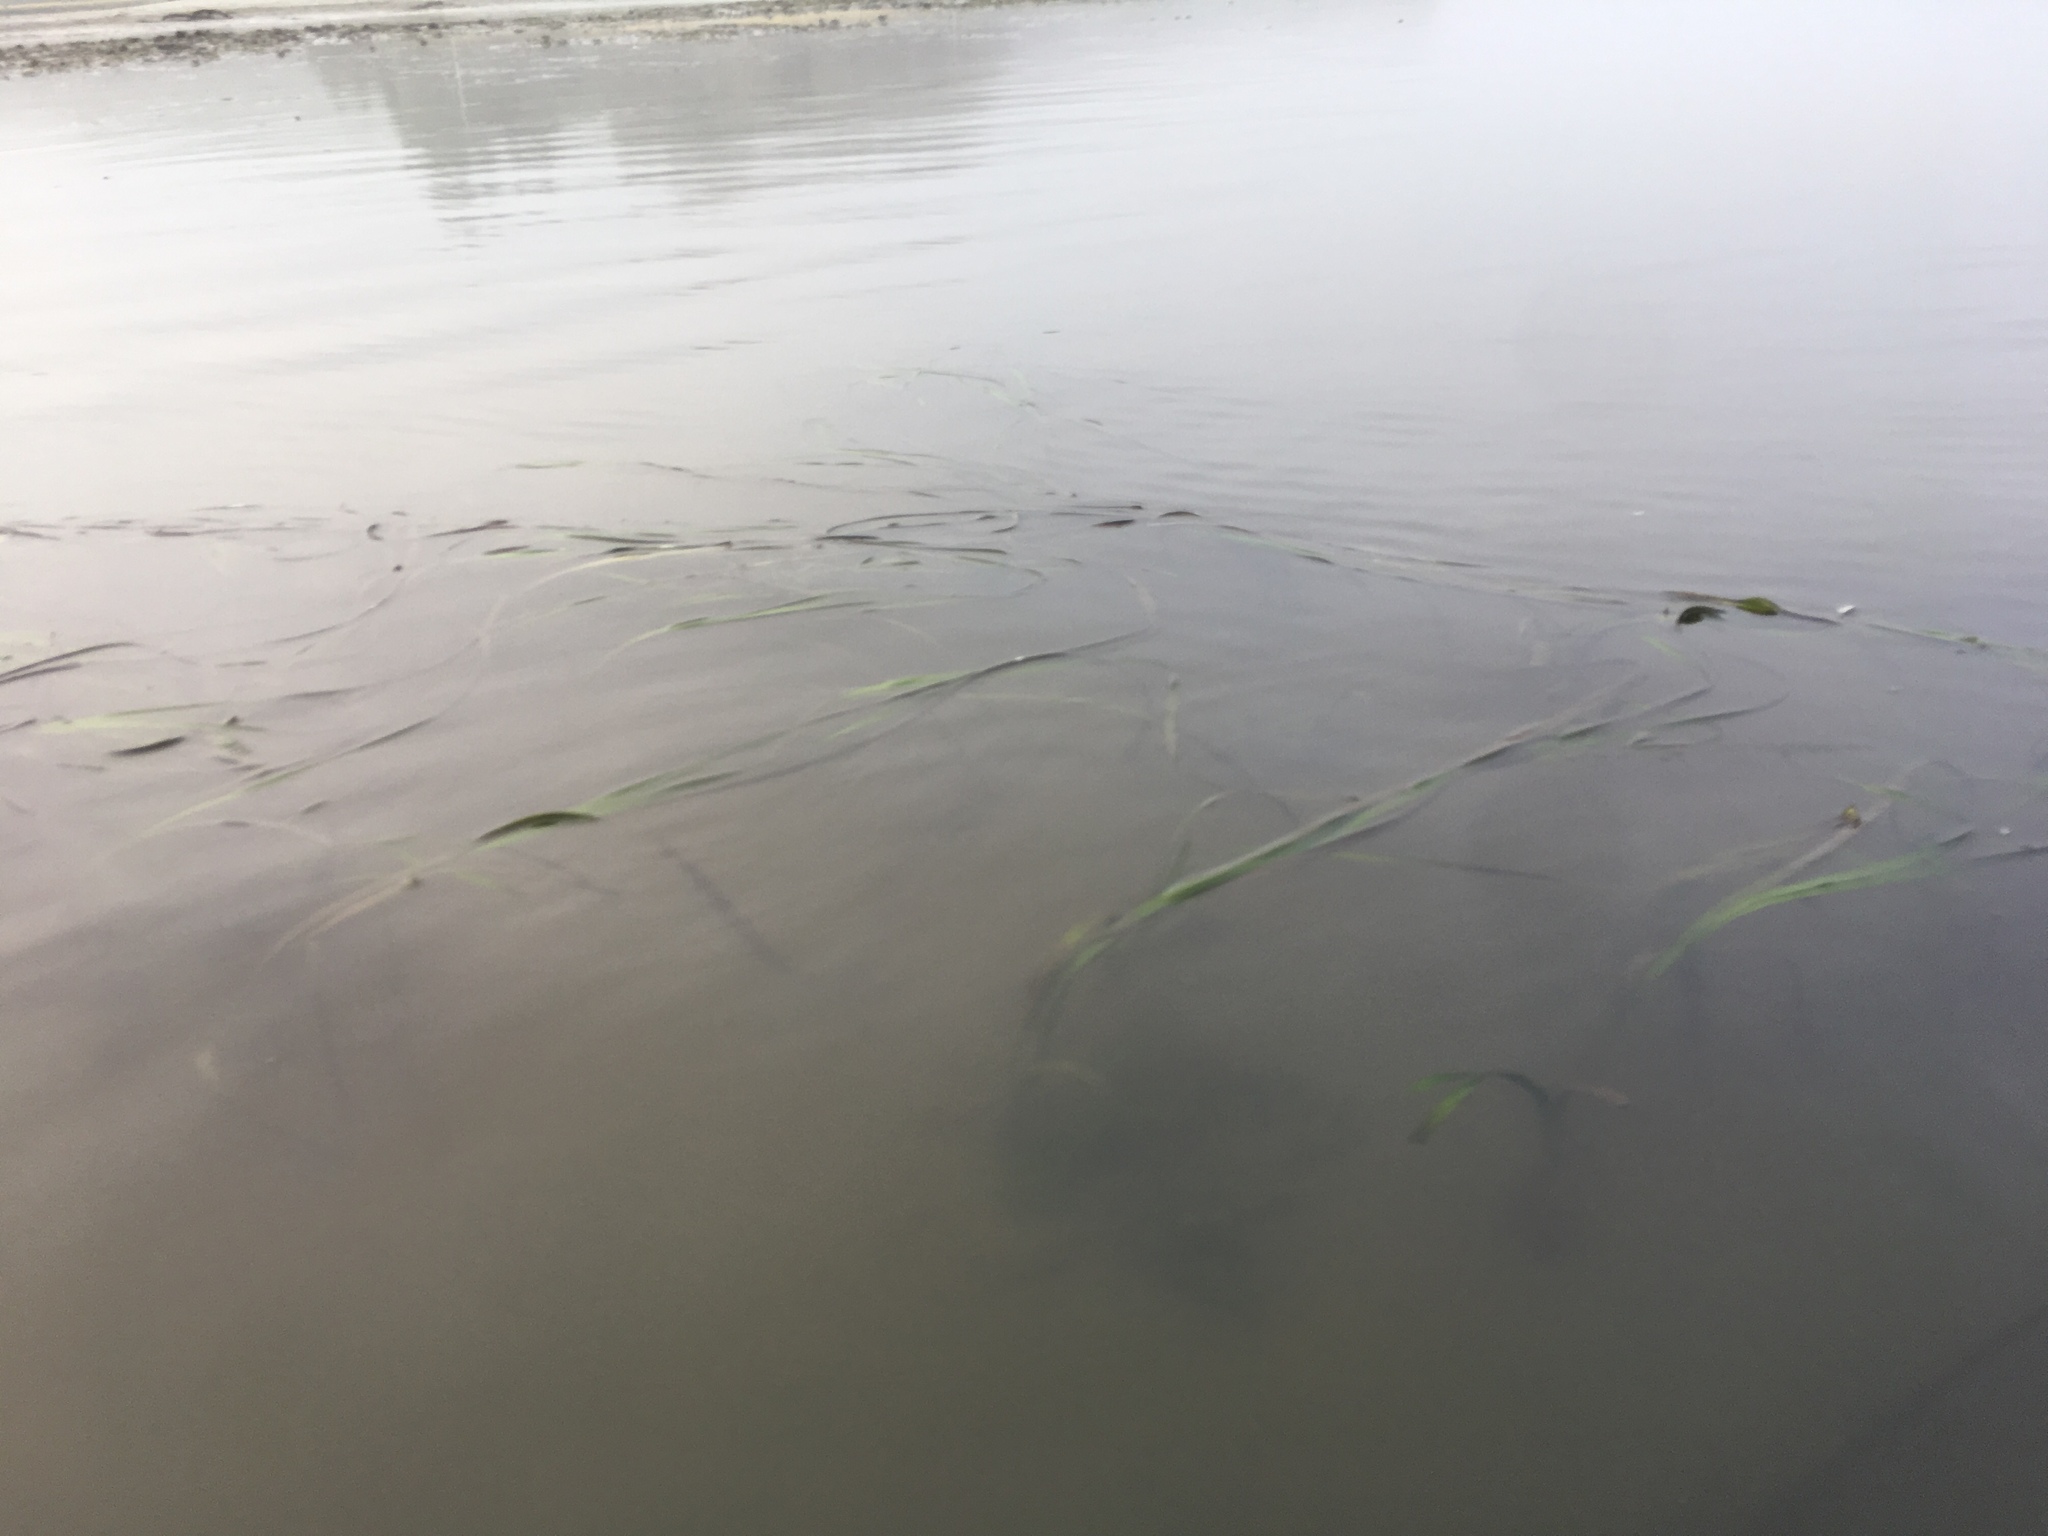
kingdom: Plantae
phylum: Tracheophyta
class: Liliopsida
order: Alismatales
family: Zosteraceae
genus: Zostera
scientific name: Zostera marina
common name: Eelgrass
